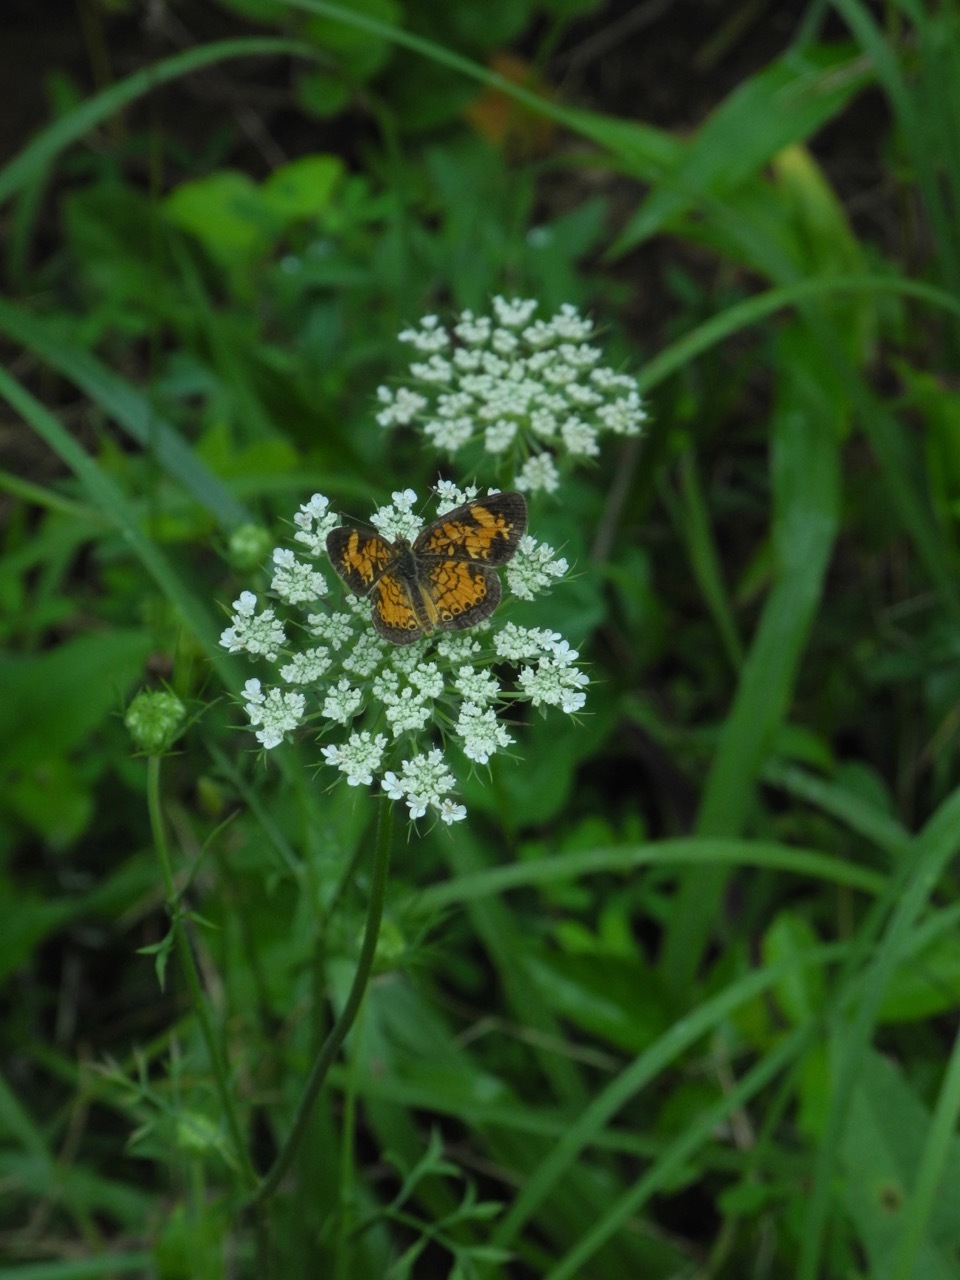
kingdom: Animalia
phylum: Arthropoda
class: Insecta
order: Lepidoptera
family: Nymphalidae
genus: Phyciodes
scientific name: Phyciodes tharos
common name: Pearl crescent
